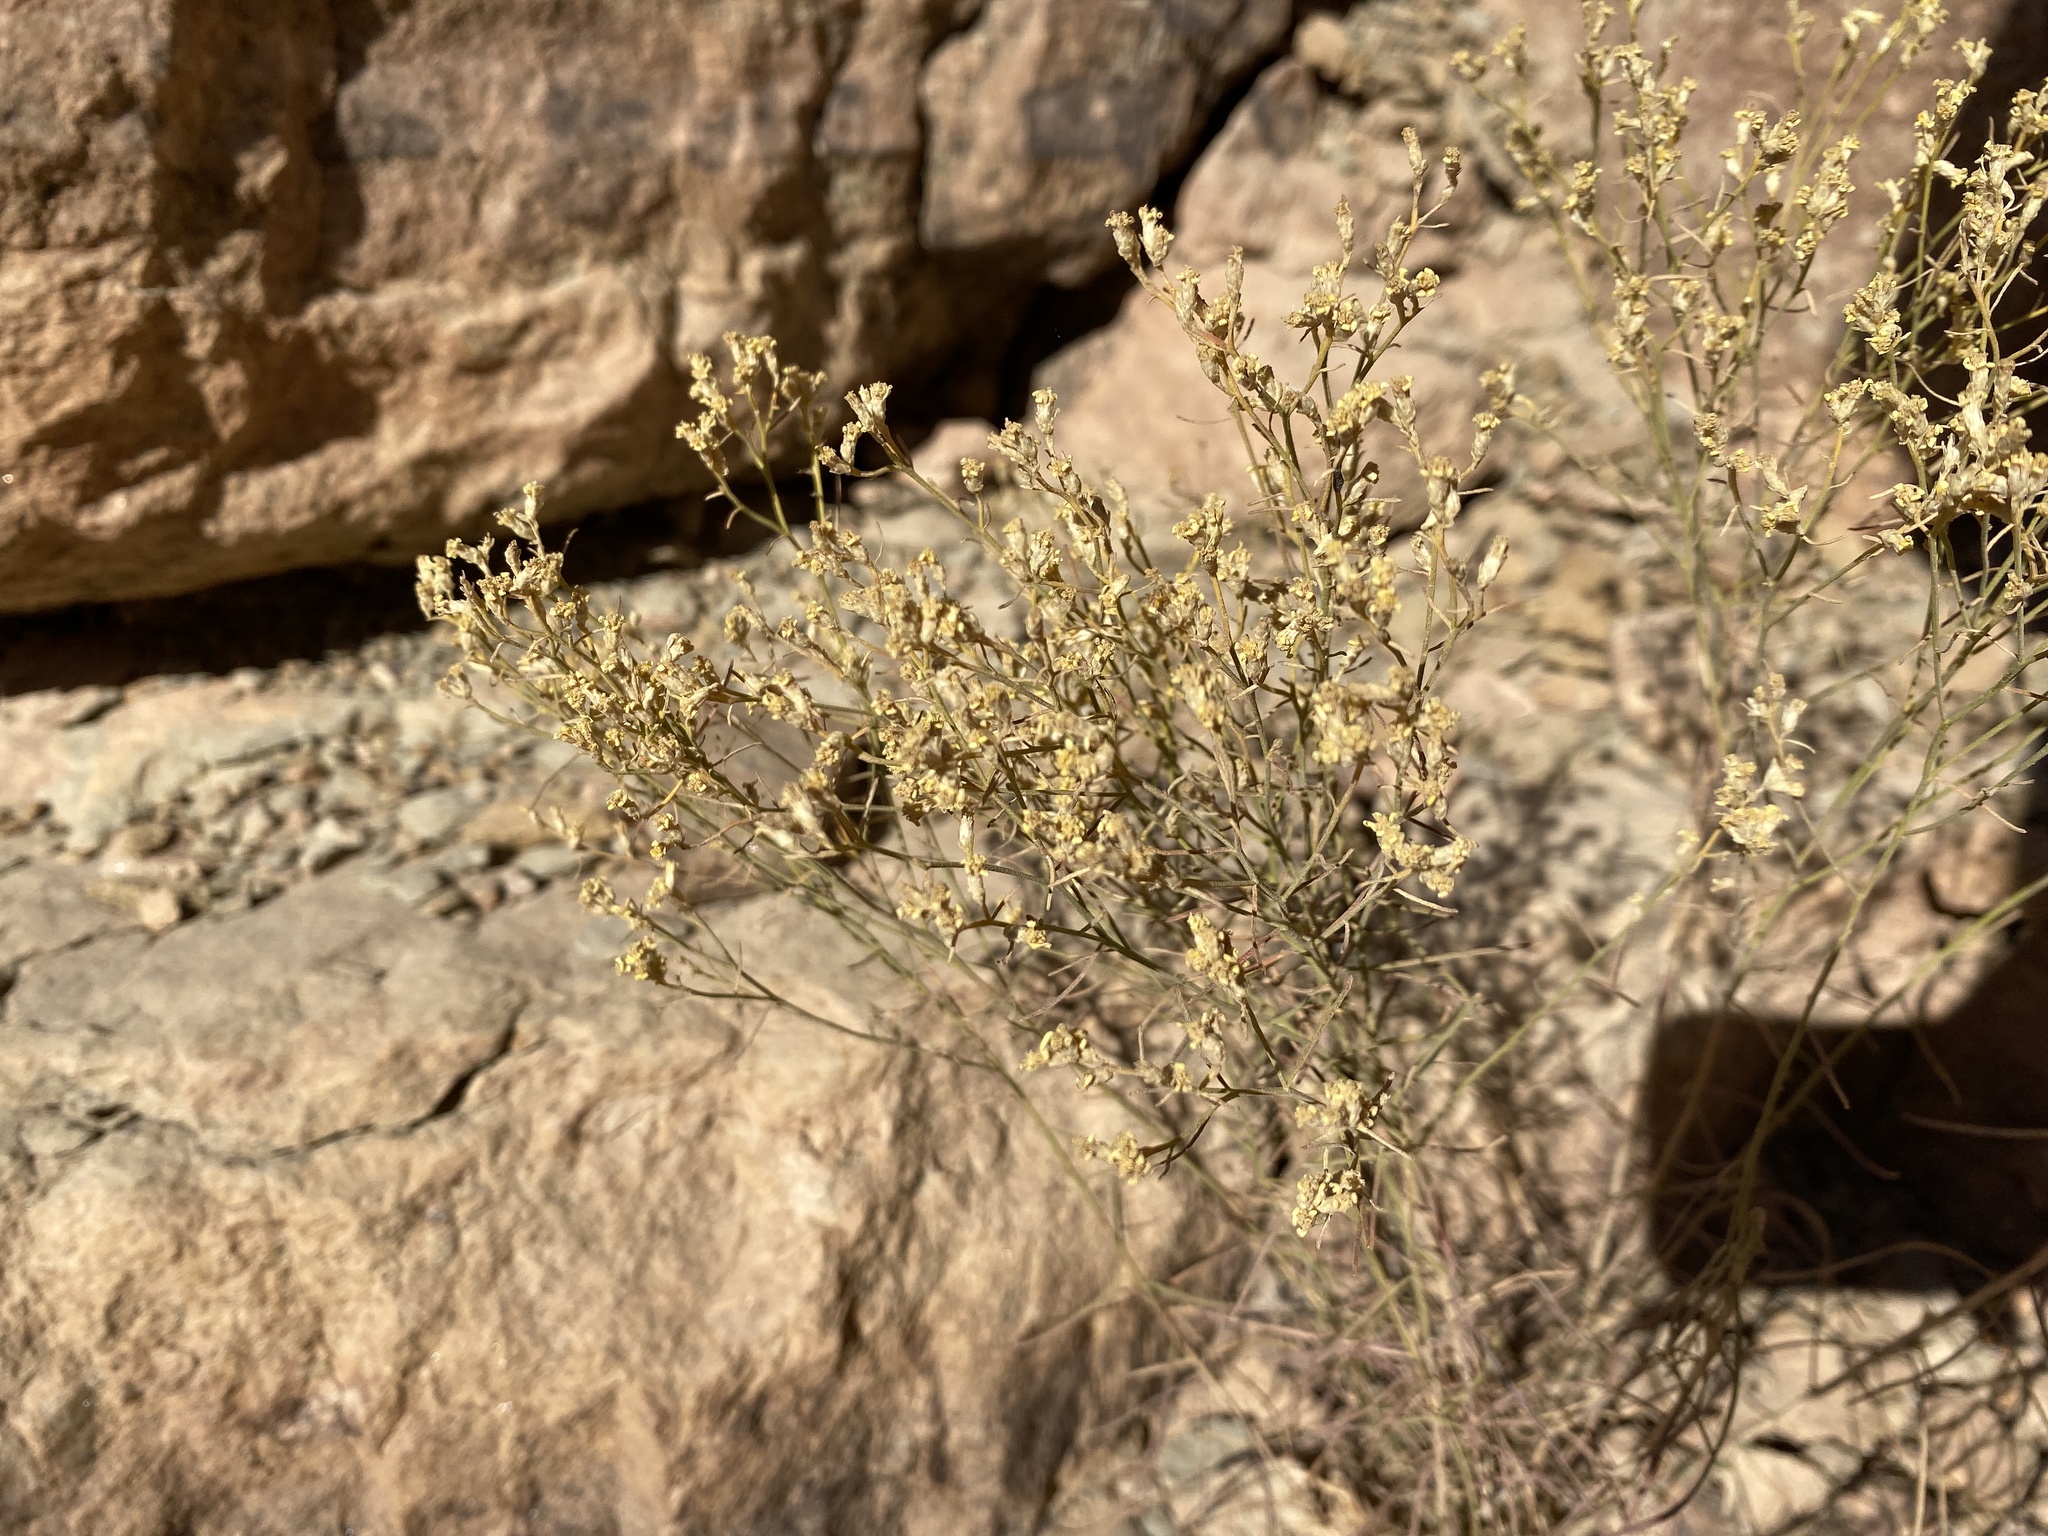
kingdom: Plantae
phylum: Tracheophyta
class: Magnoliopsida
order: Asterales
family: Asteraceae
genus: Gutierrezia
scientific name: Gutierrezia sarothrae
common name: Broom snakeweed
